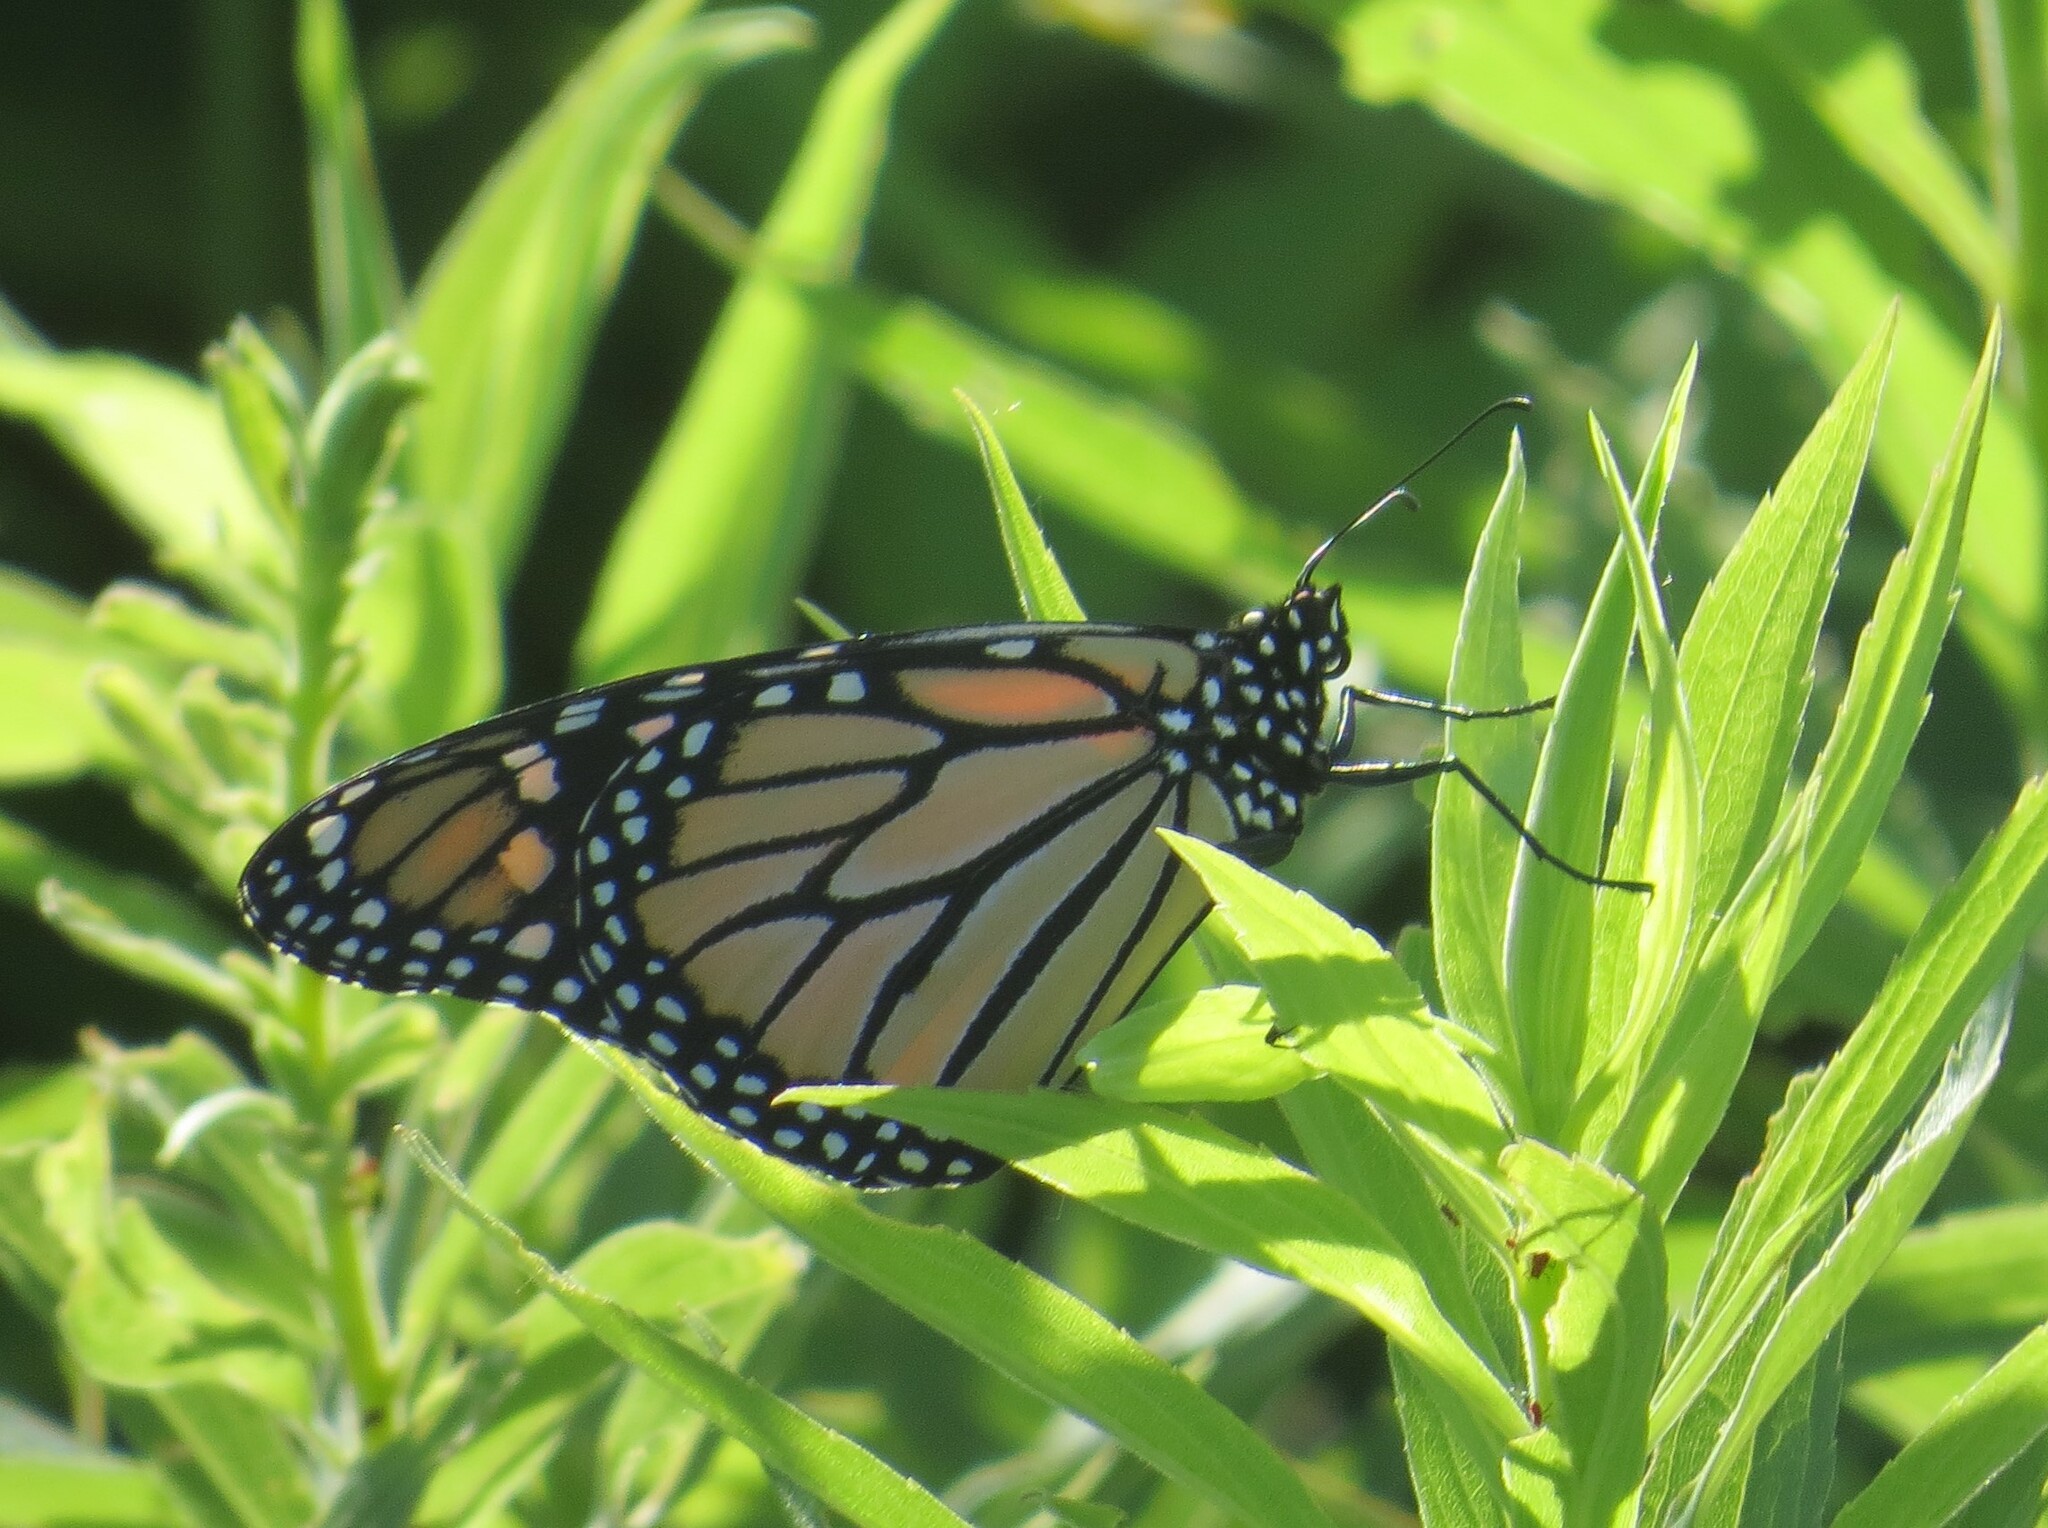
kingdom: Animalia
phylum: Arthropoda
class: Insecta
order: Lepidoptera
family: Nymphalidae
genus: Danaus
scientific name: Danaus plexippus
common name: Monarch
